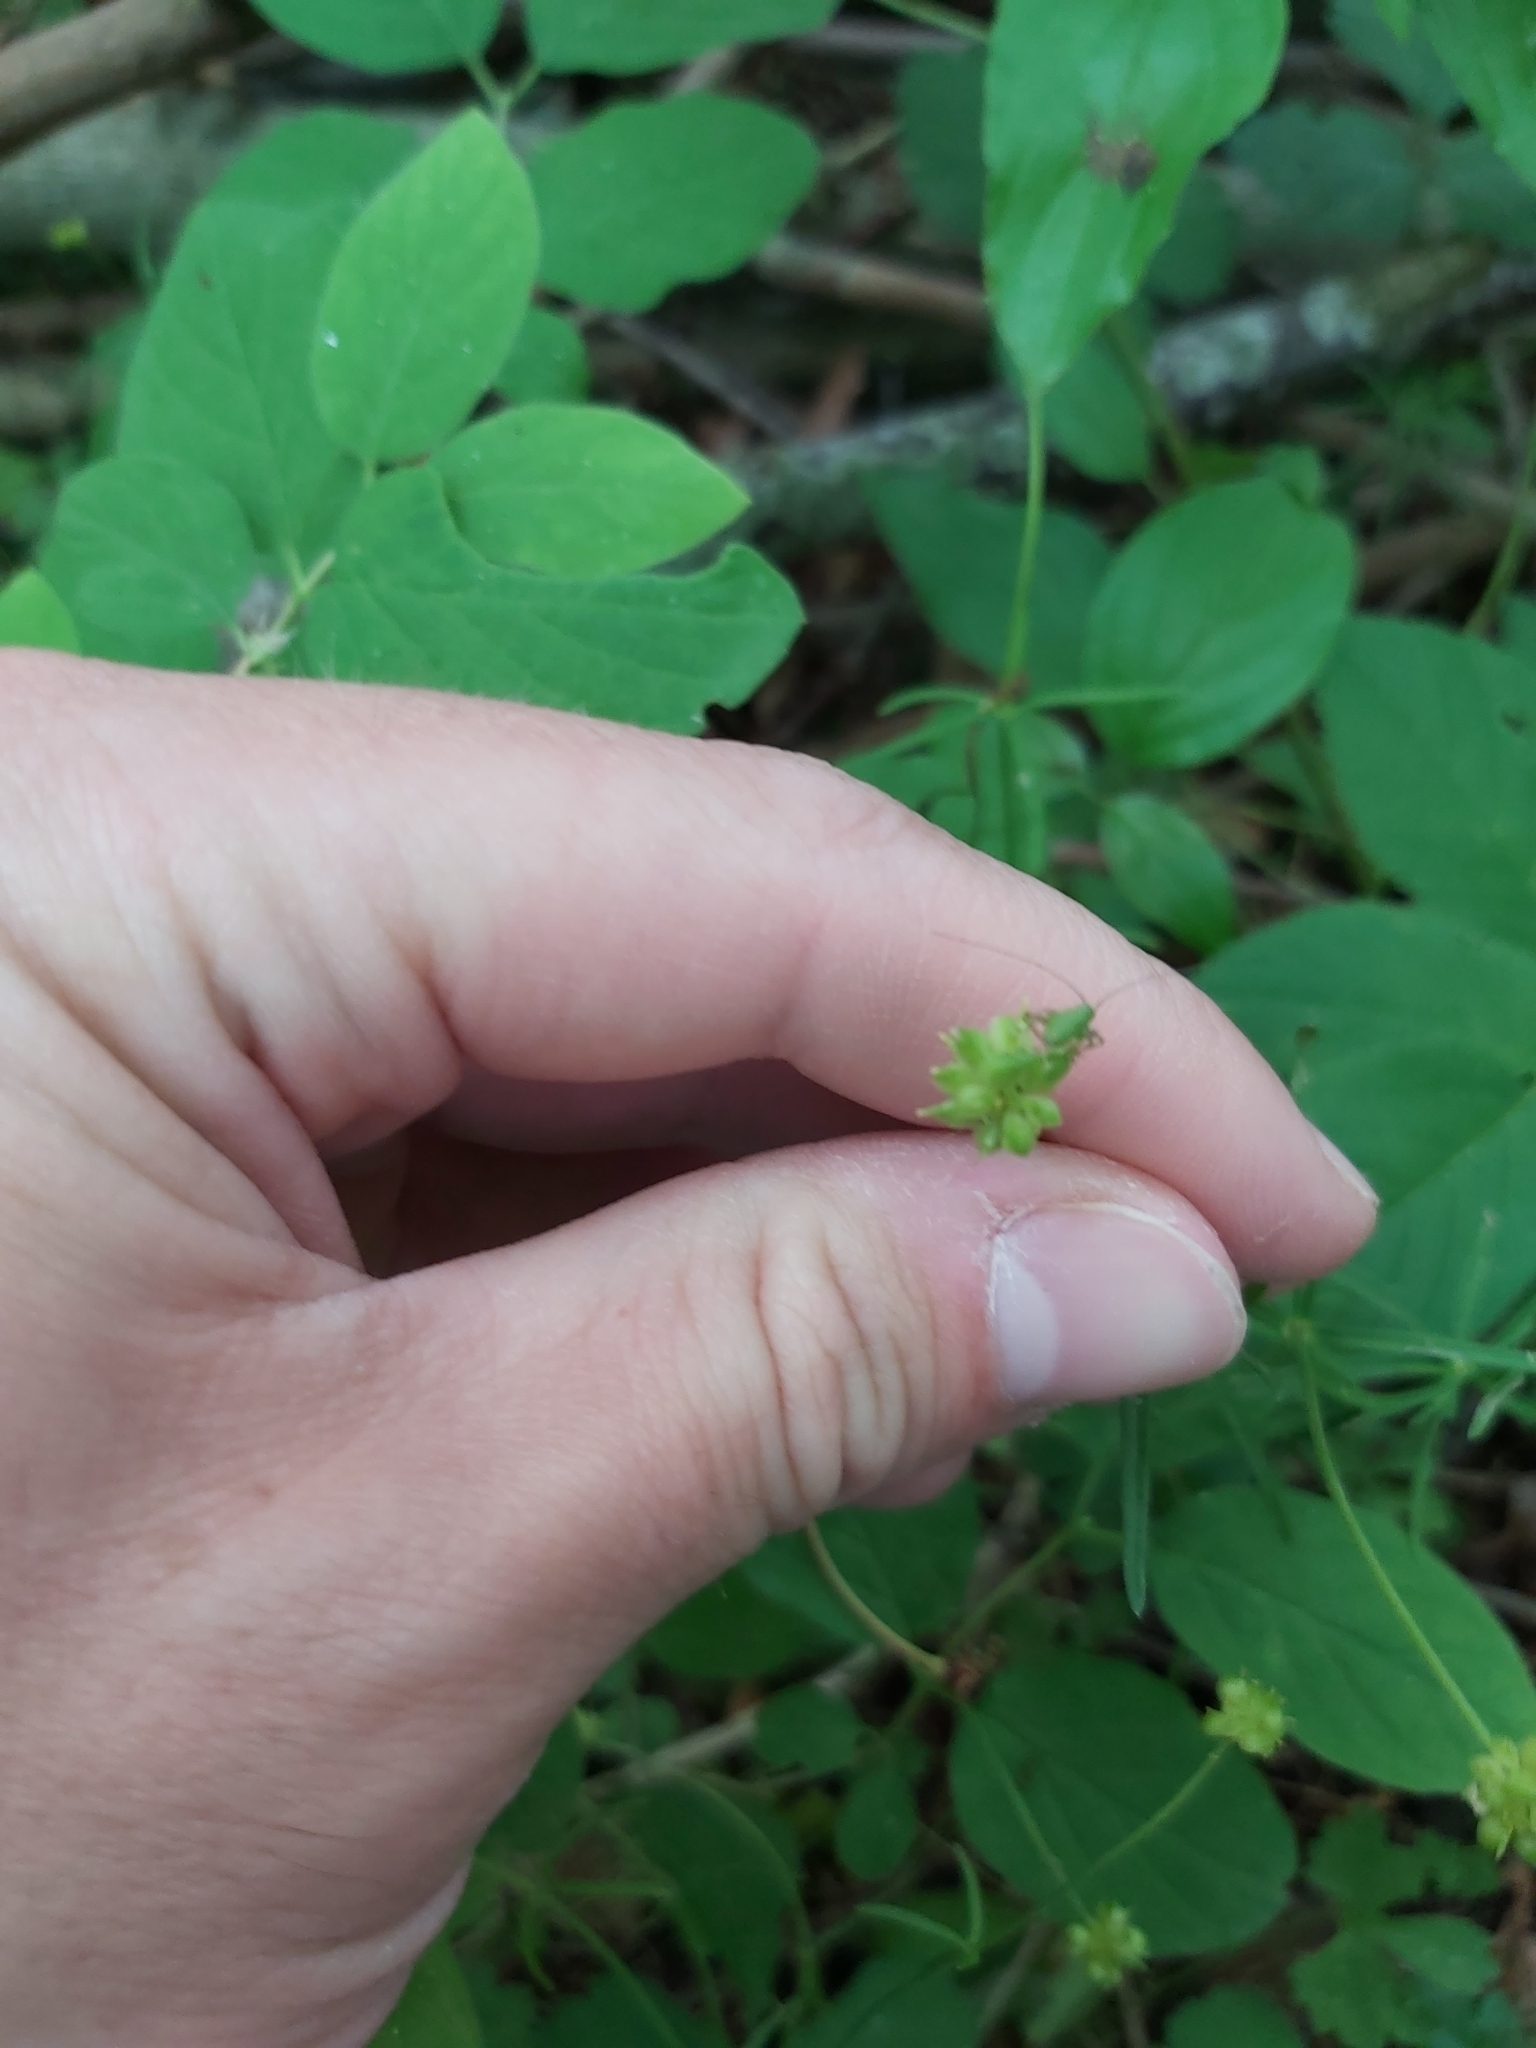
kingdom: Plantae
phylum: Tracheophyta
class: Magnoliopsida
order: Ranunculales
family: Ranunculaceae
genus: Ranunculus
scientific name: Ranunculus auricomus
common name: Goldilocks buttercup
